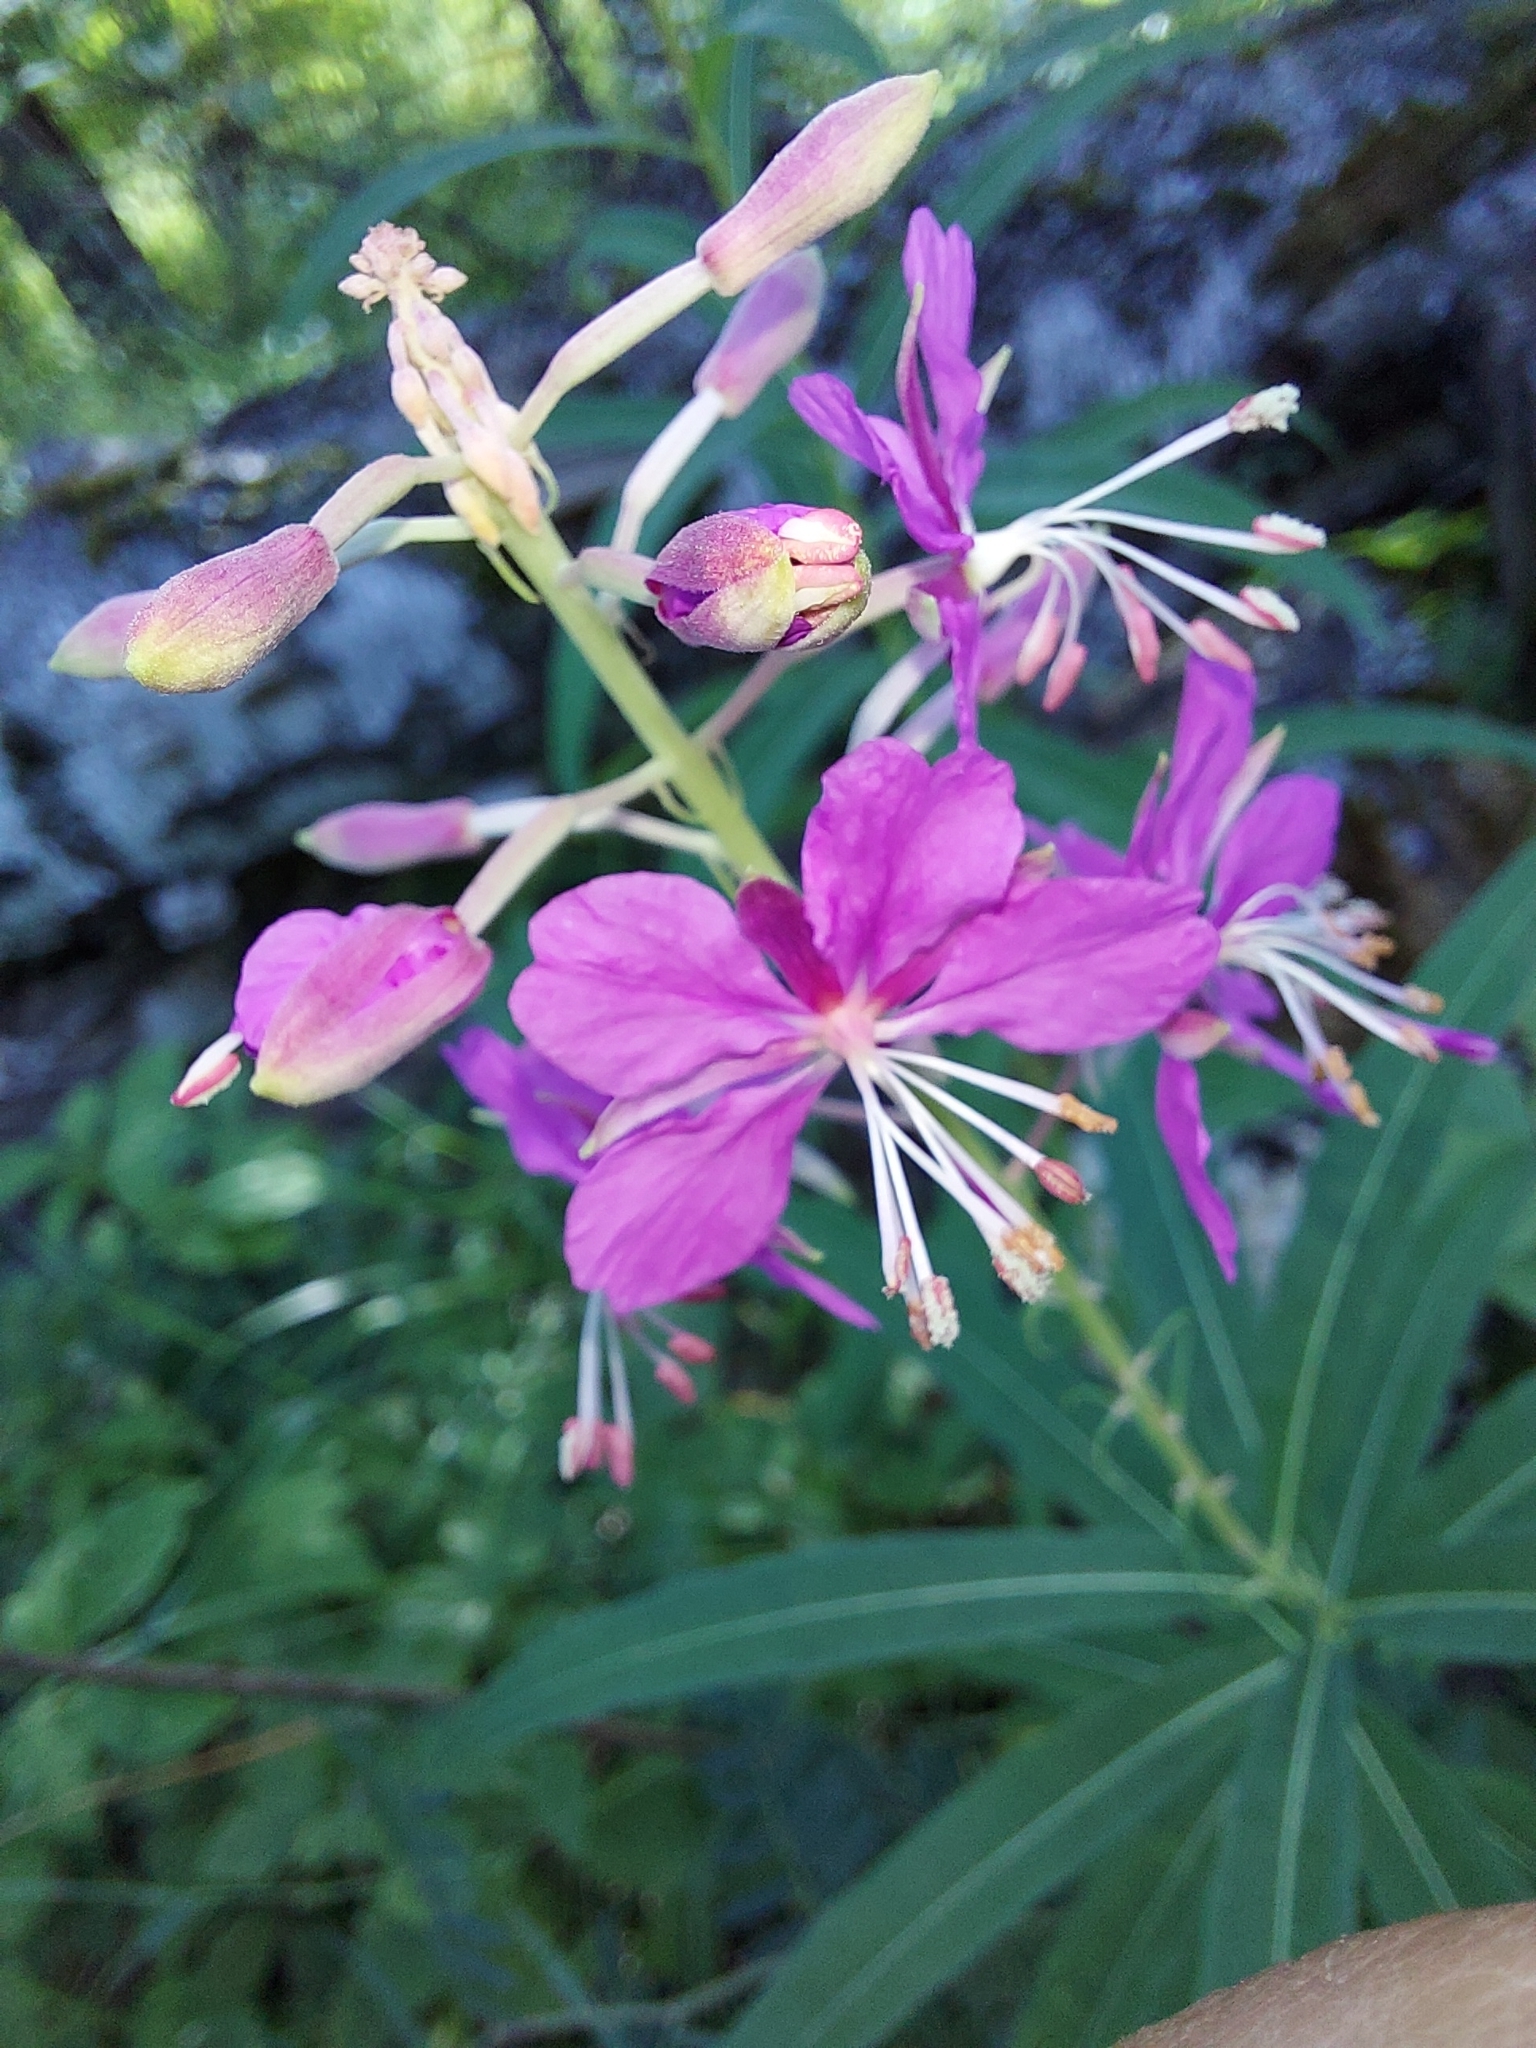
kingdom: Plantae
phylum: Tracheophyta
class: Magnoliopsida
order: Myrtales
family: Onagraceae
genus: Chamaenerion
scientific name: Chamaenerion angustifolium
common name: Fireweed
